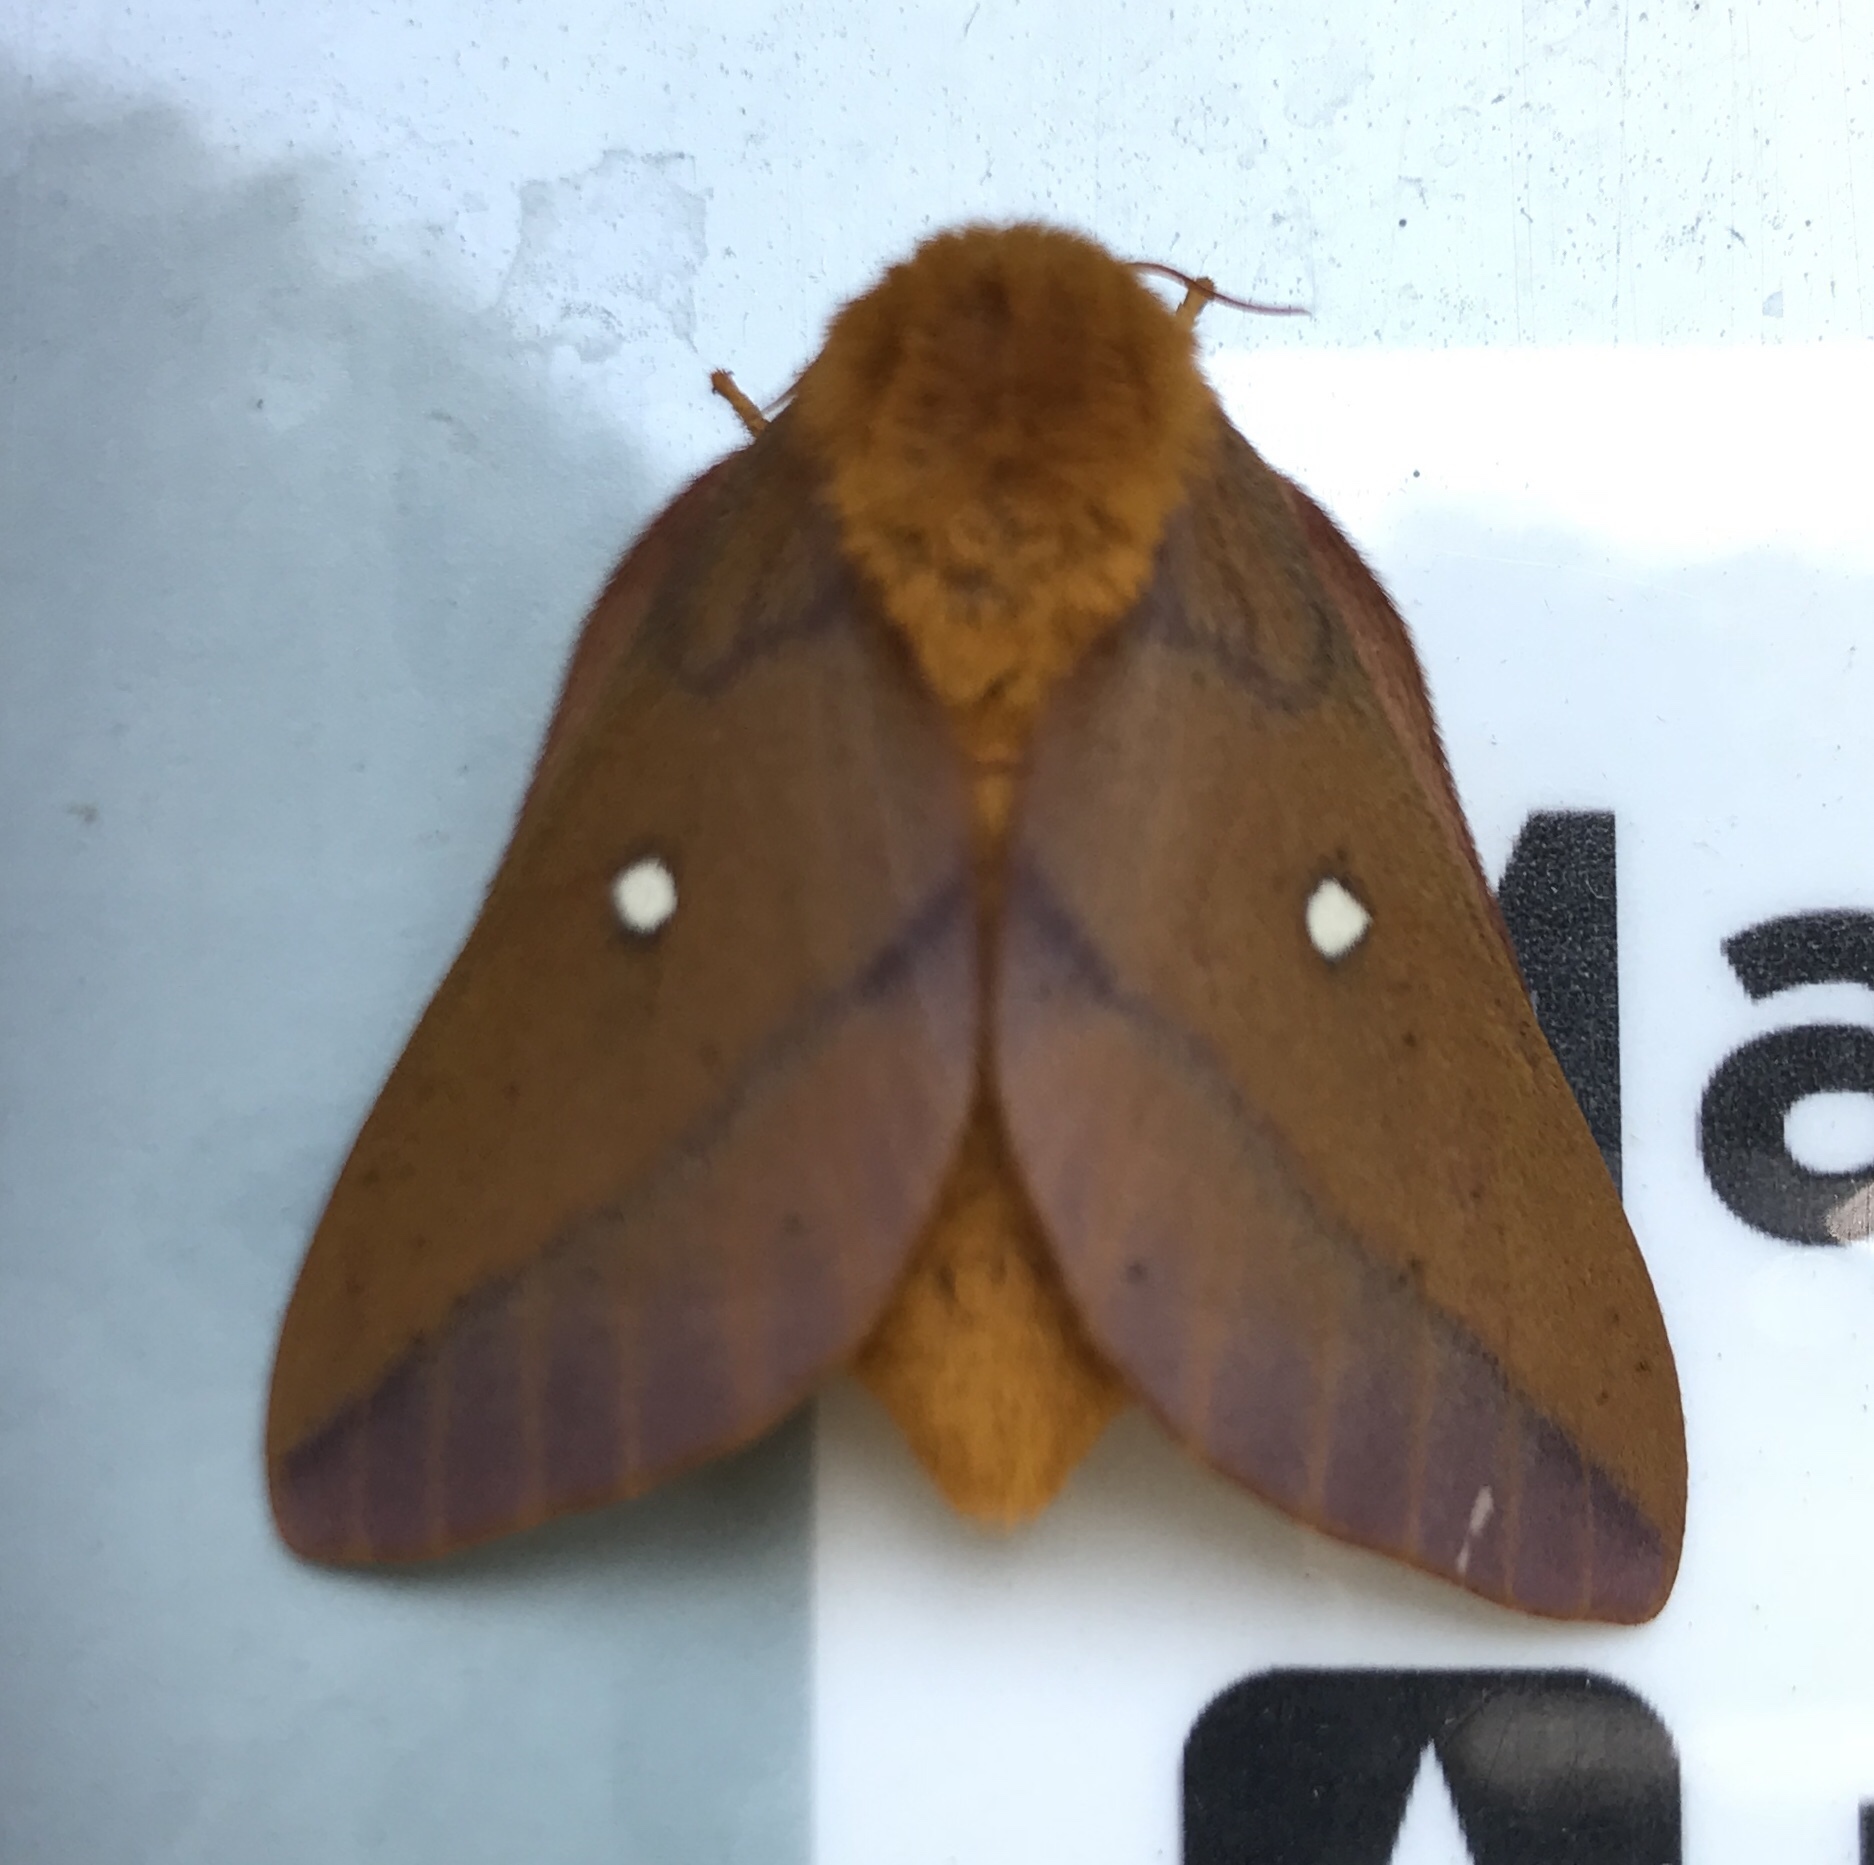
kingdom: Animalia
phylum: Arthropoda
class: Insecta
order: Lepidoptera
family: Saturniidae
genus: Anisota
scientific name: Anisota virginiensis
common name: Pink striped oakworm moth
